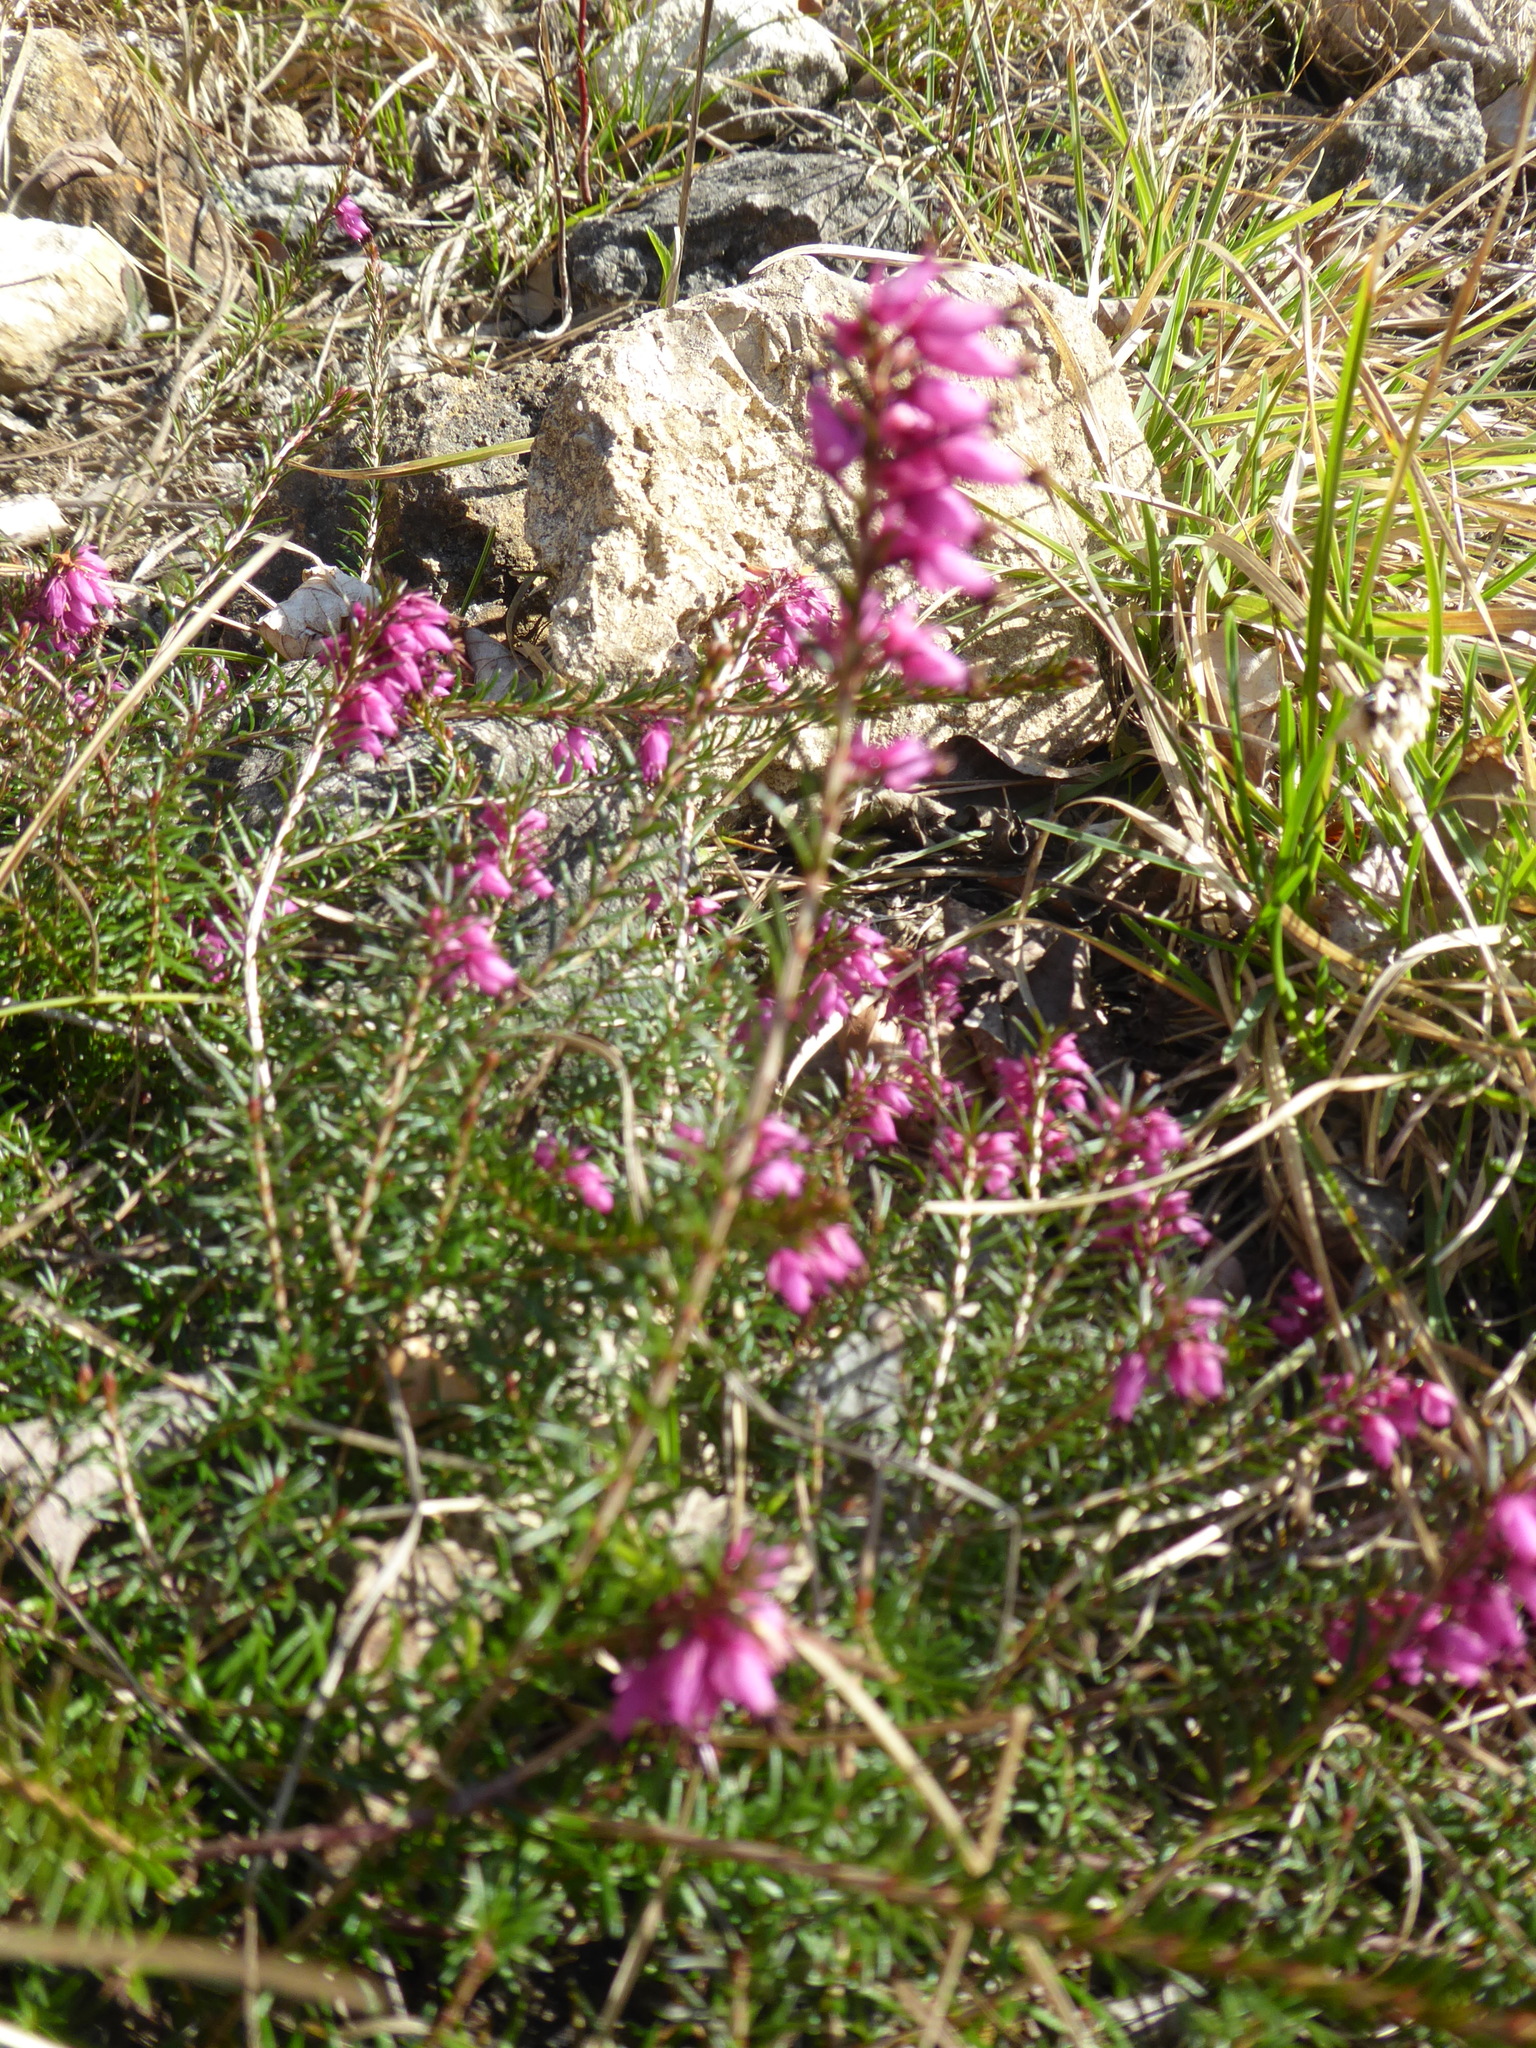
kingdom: Plantae
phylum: Tracheophyta
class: Magnoliopsida
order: Ericales
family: Ericaceae
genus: Erica
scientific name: Erica carnea
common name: Winter heath
